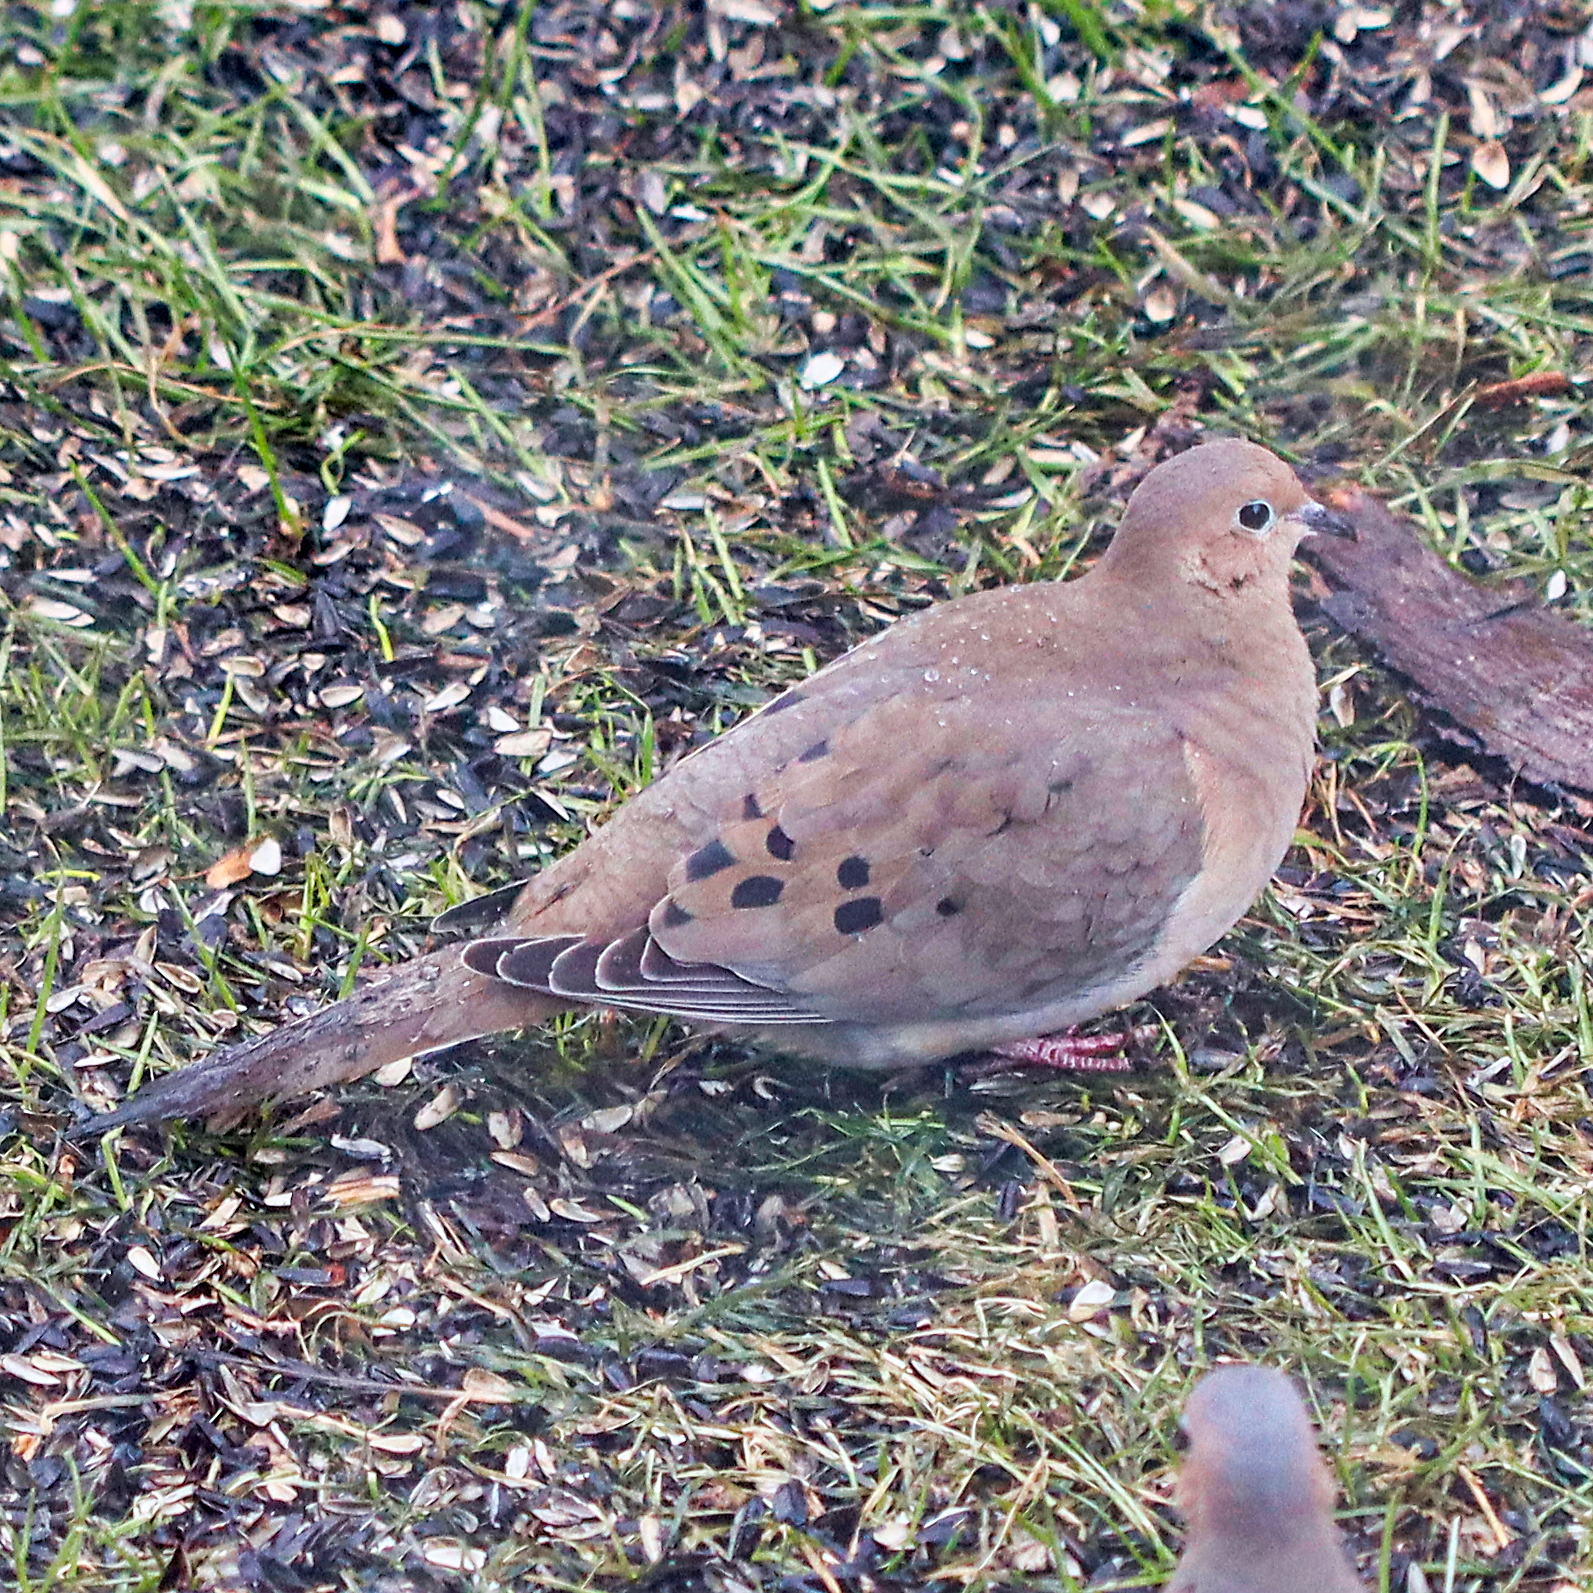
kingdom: Animalia
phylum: Chordata
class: Aves
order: Columbiformes
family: Columbidae
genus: Zenaida
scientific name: Zenaida macroura
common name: Mourning dove
